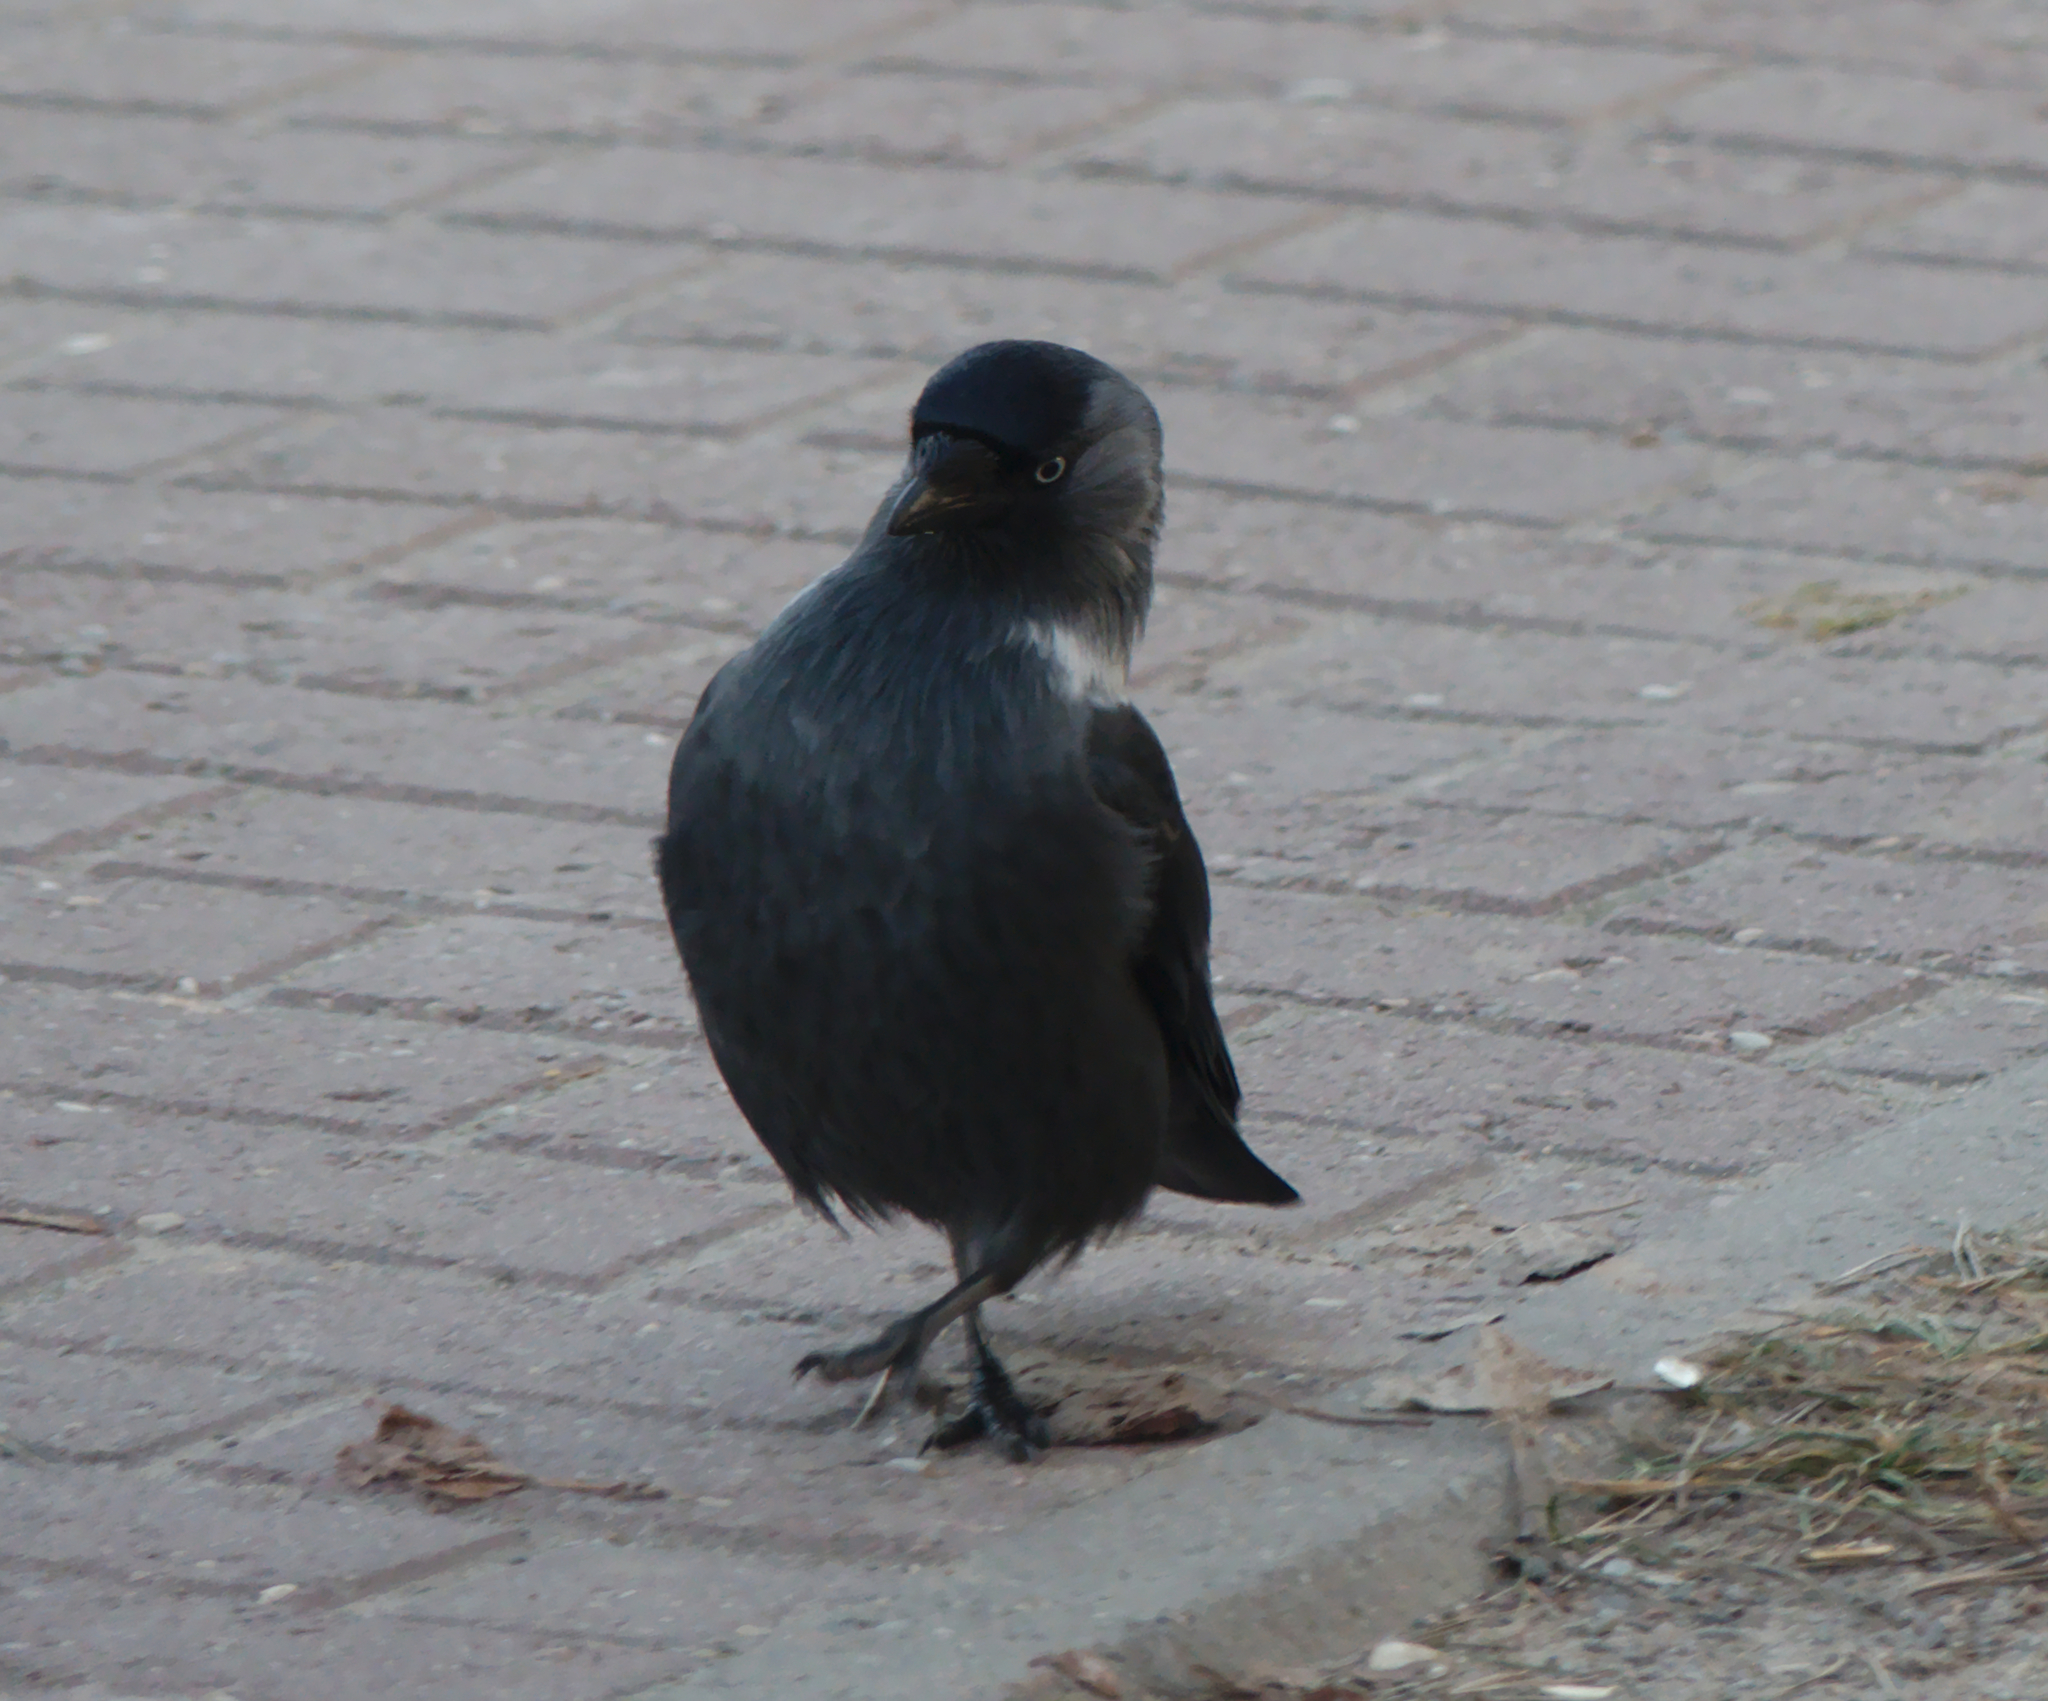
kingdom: Animalia
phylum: Chordata
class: Aves
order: Passeriformes
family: Corvidae
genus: Coloeus
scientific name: Coloeus monedula
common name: Western jackdaw
